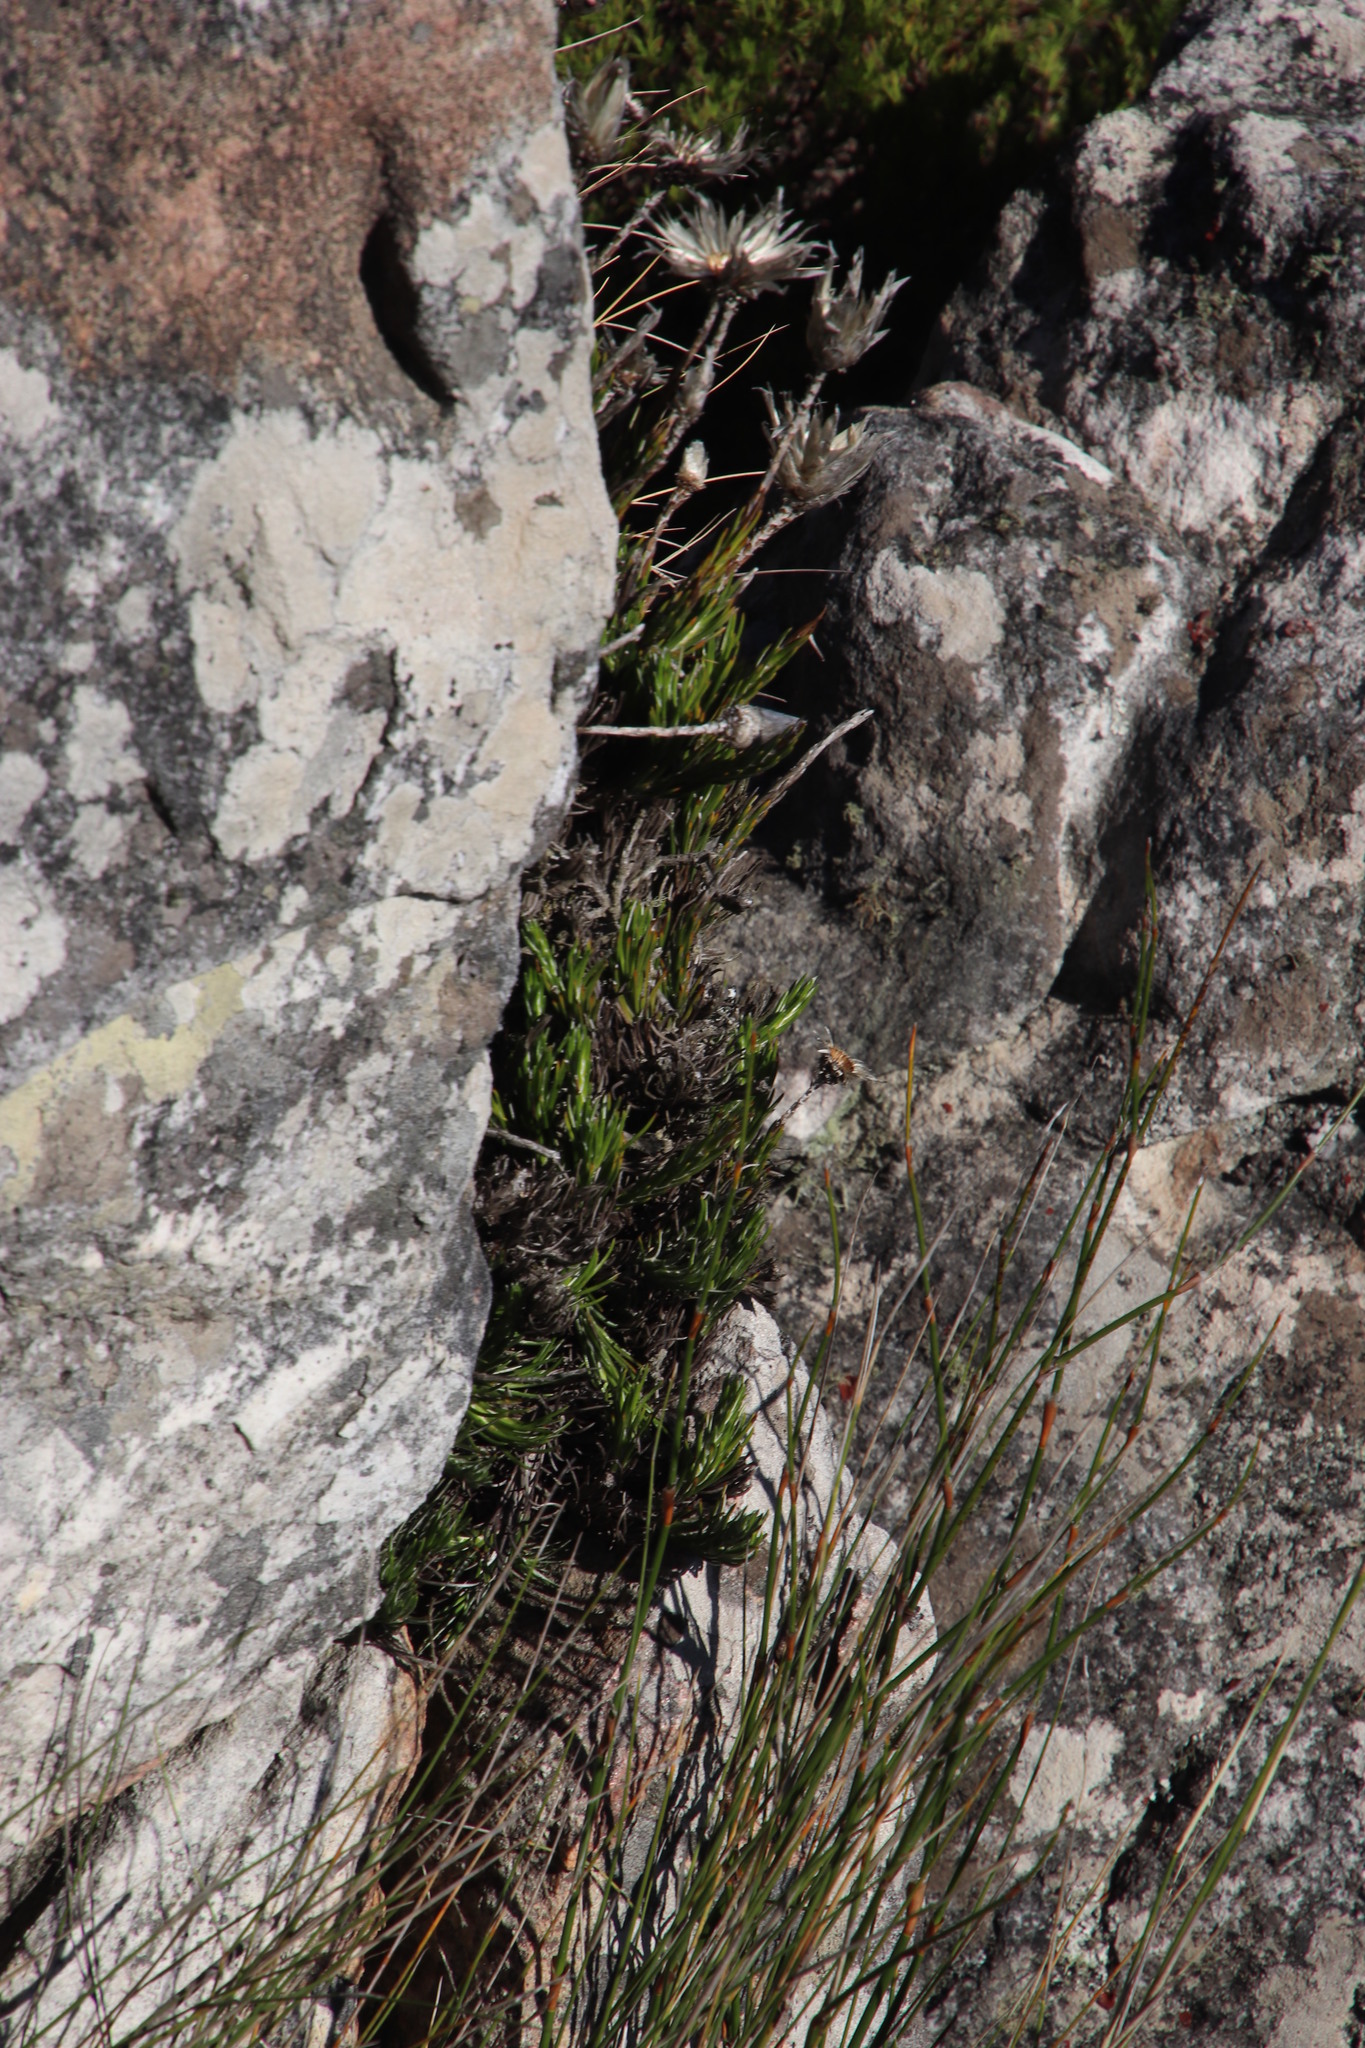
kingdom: Plantae
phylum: Tracheophyta
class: Magnoliopsida
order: Asterales
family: Asteraceae
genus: Edmondia
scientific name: Edmondia pinifolia
